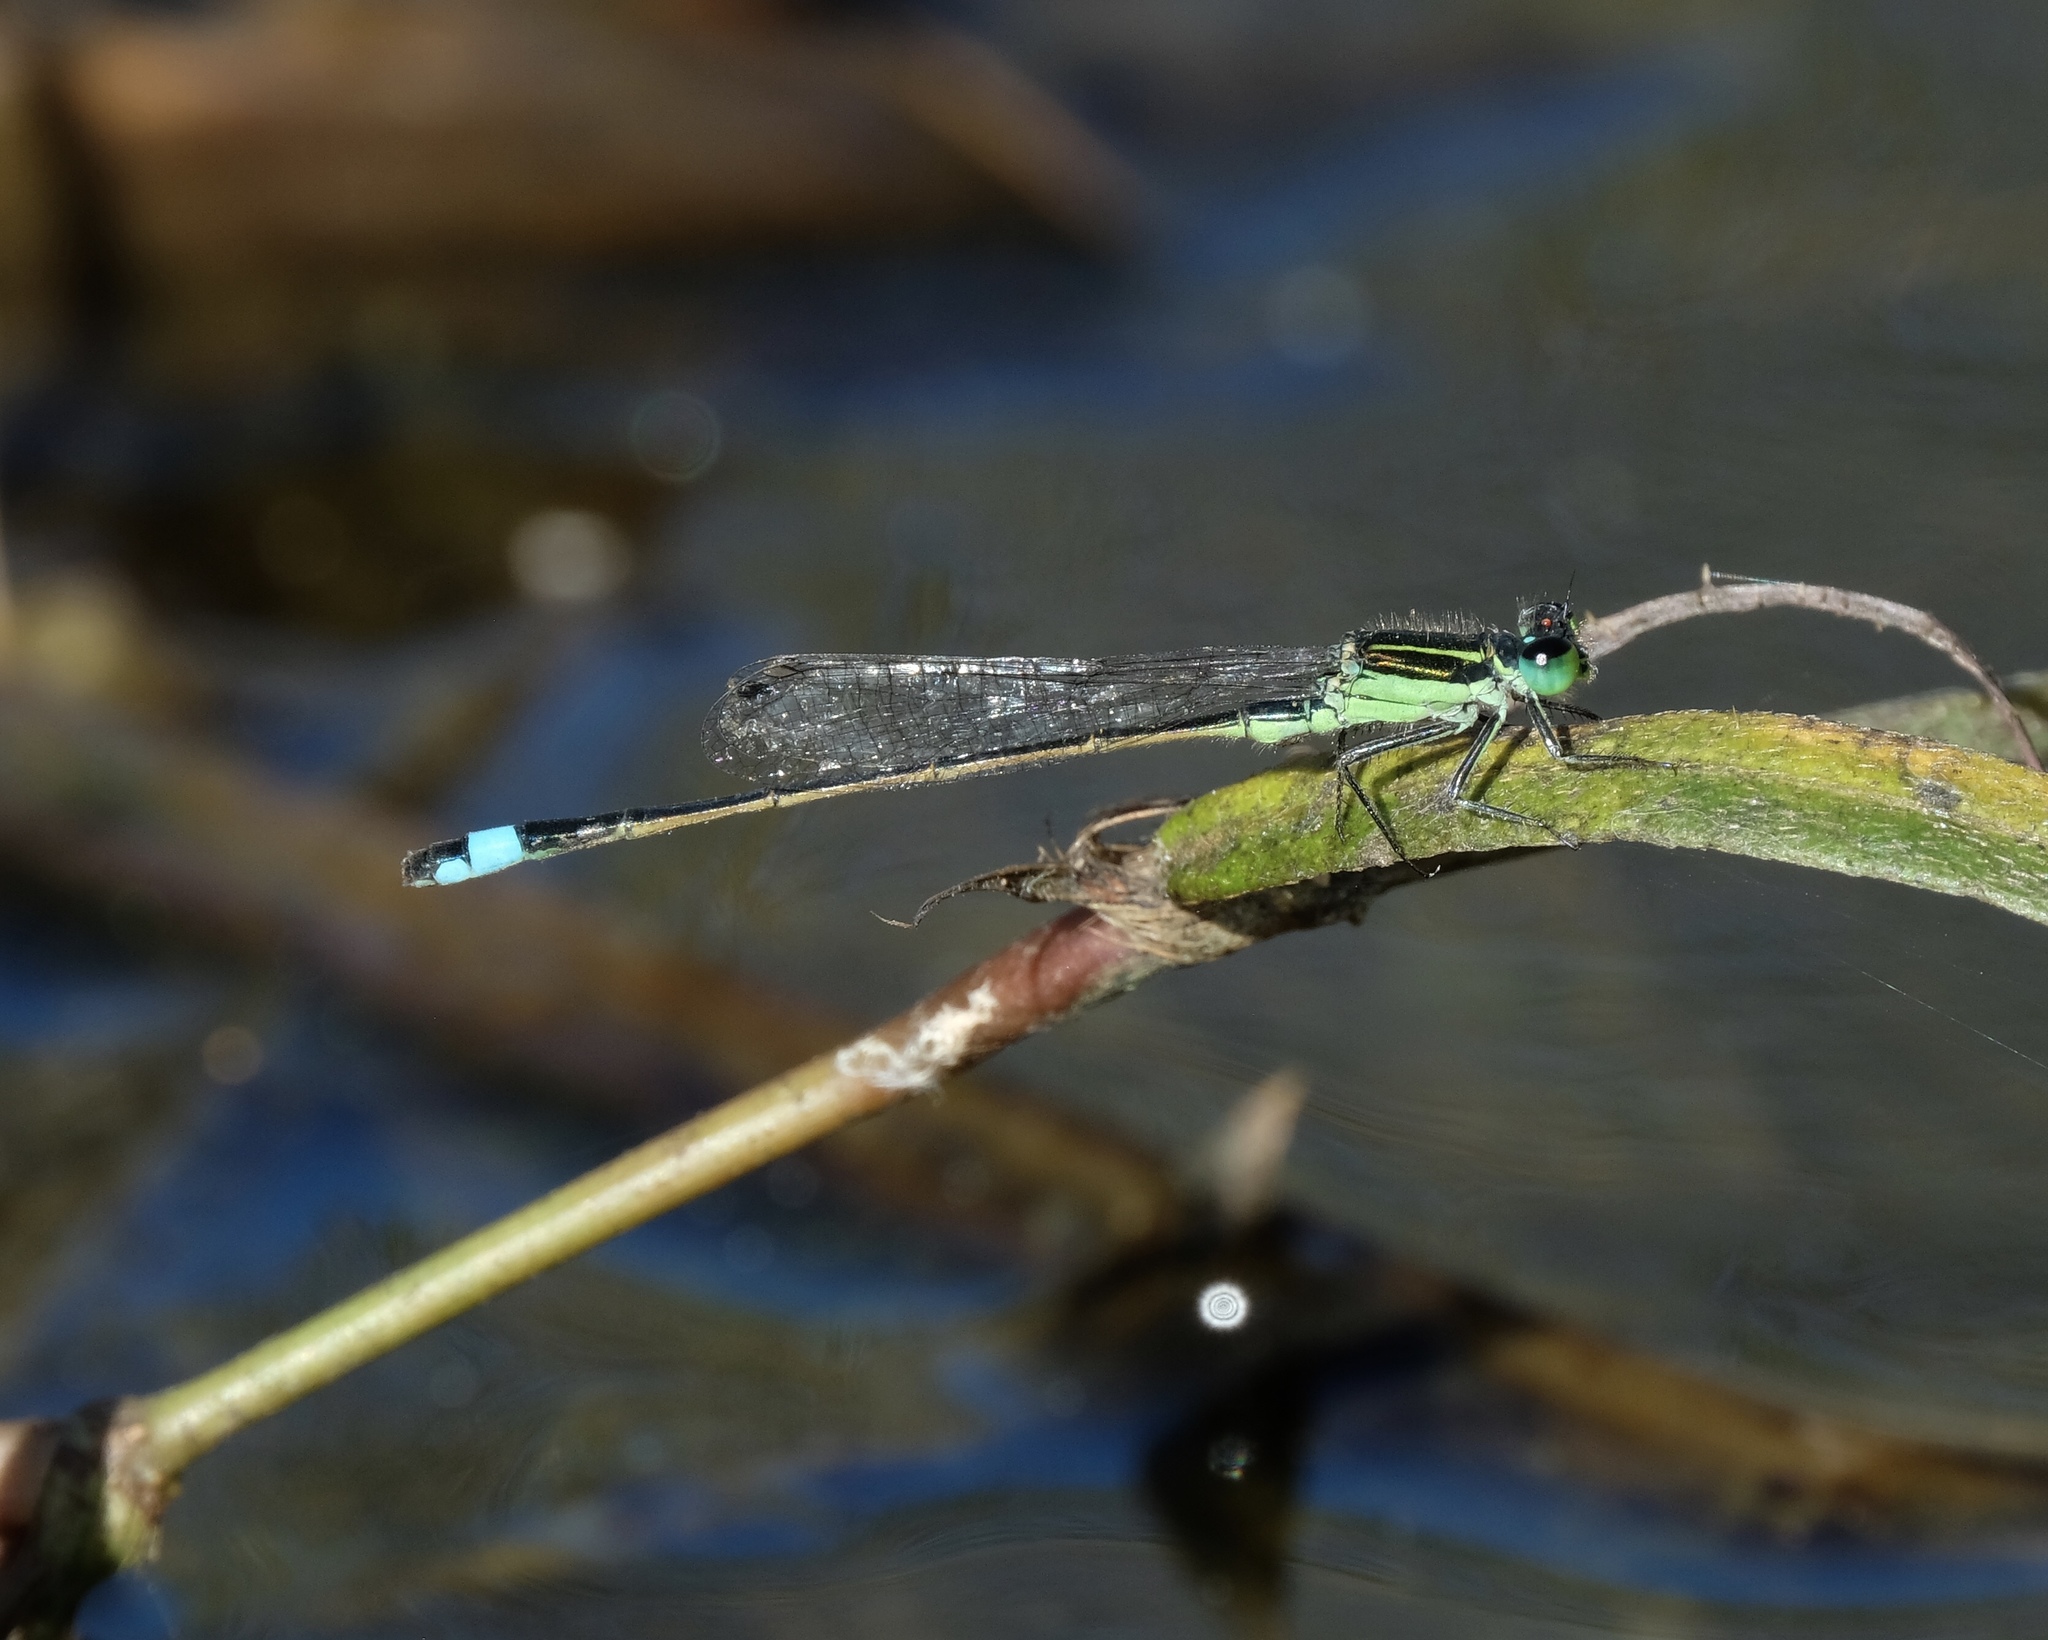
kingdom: Animalia
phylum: Arthropoda
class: Insecta
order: Odonata
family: Coenagrionidae
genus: Ischnura
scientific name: Ischnura ramburii
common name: Rambur's forktail
